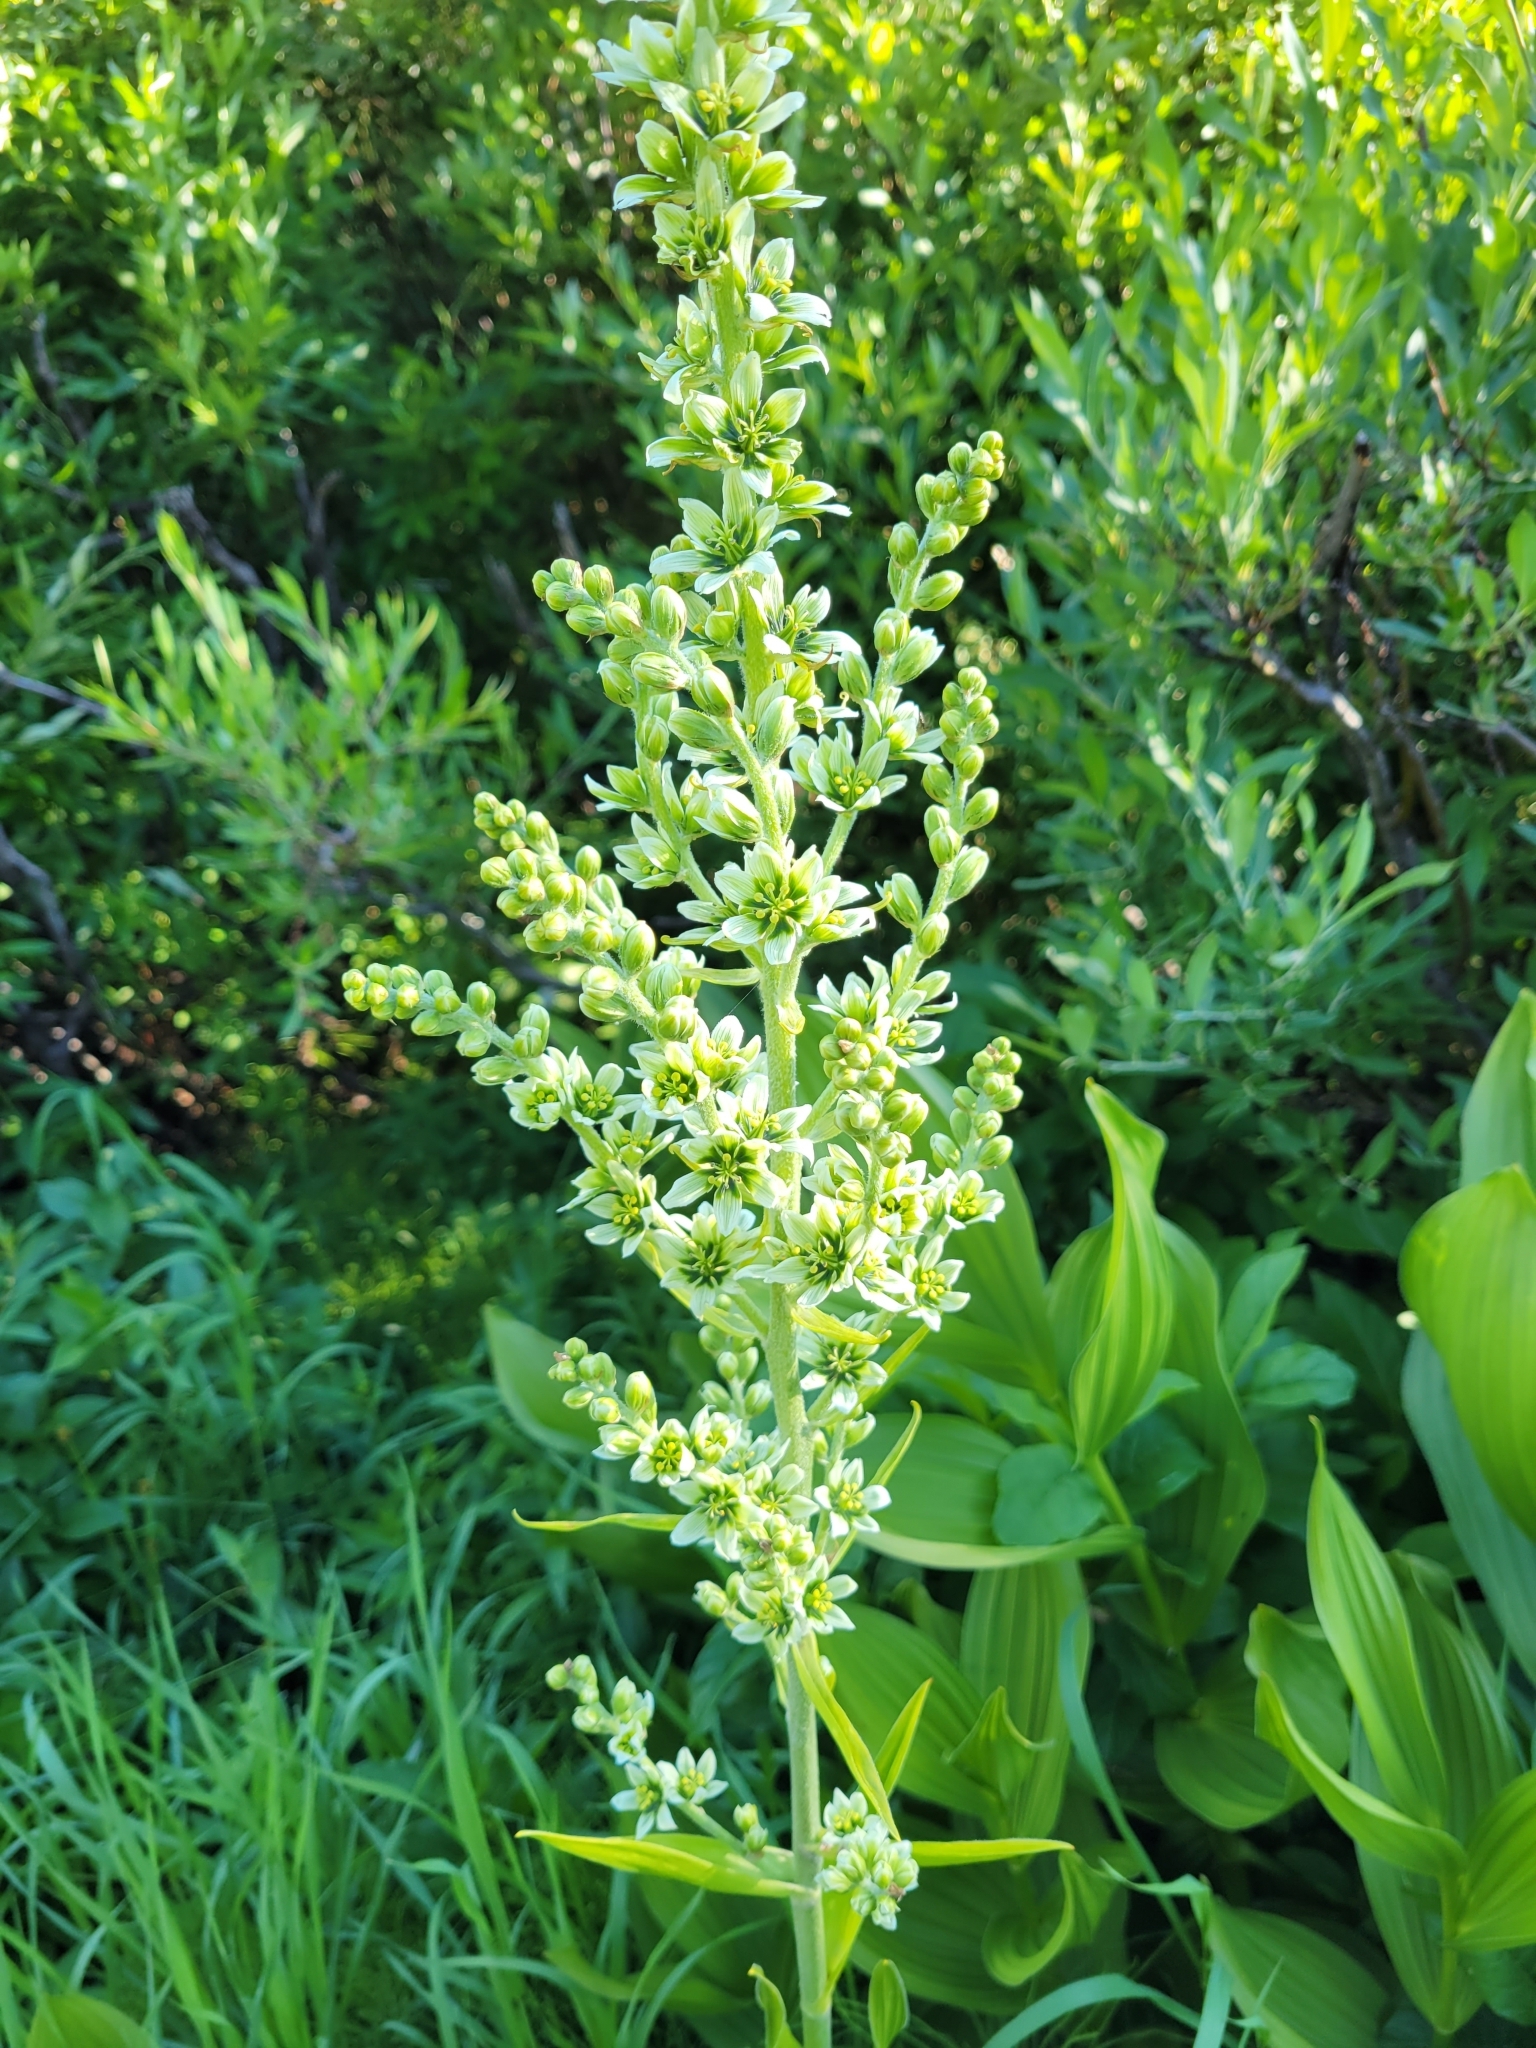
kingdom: Plantae
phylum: Tracheophyta
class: Liliopsida
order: Liliales
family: Melanthiaceae
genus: Veratrum
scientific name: Veratrum californicum
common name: California veratrum
